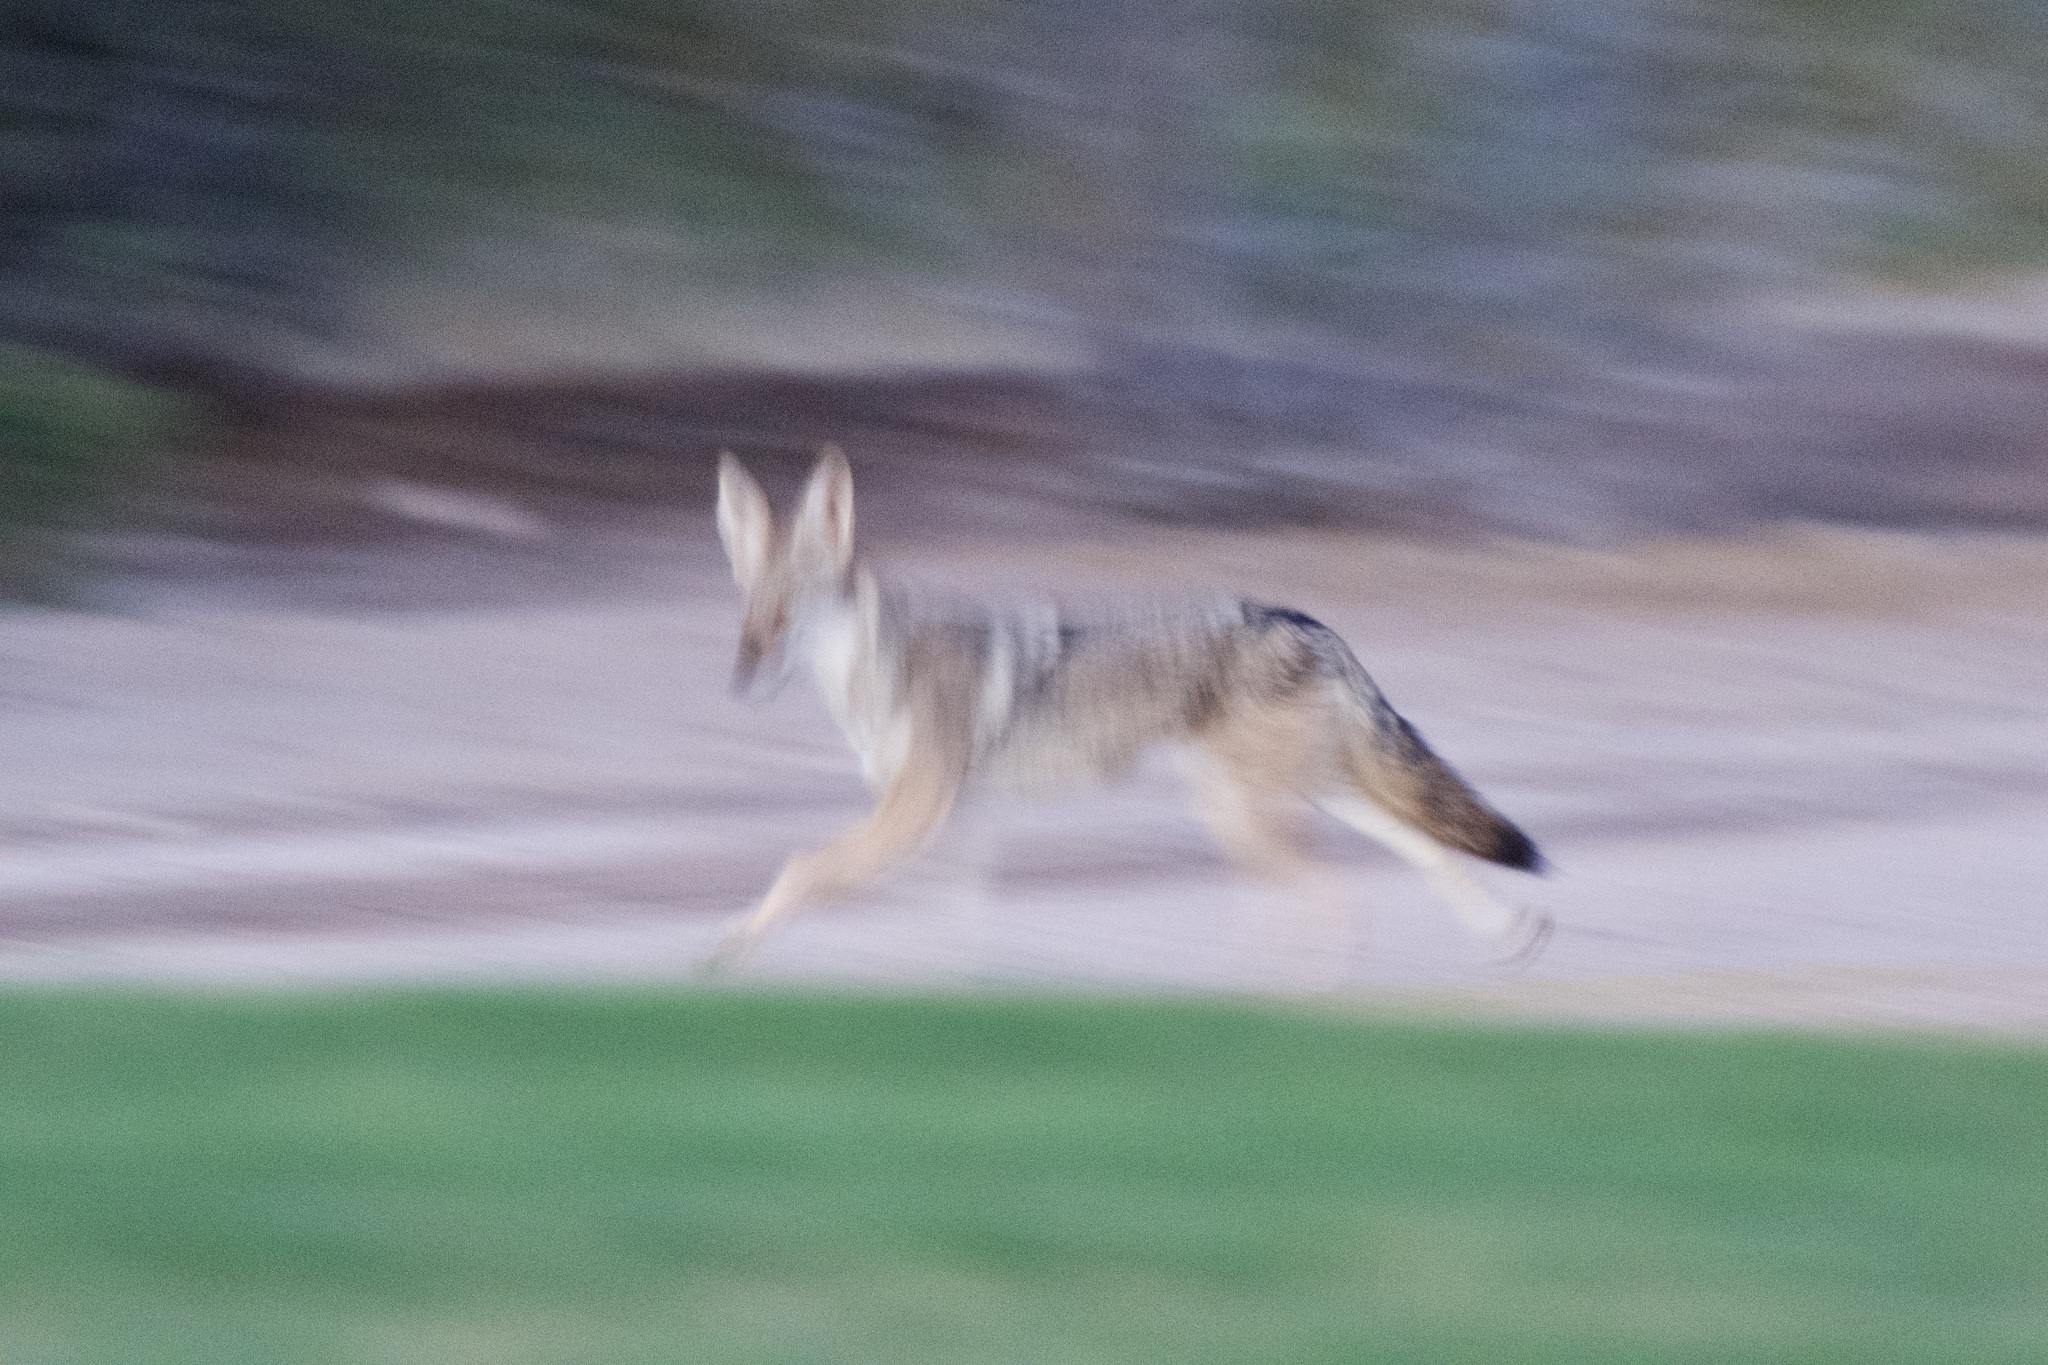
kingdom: Animalia
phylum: Chordata
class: Mammalia
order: Carnivora
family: Canidae
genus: Canis
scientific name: Canis latrans
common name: Coyote
